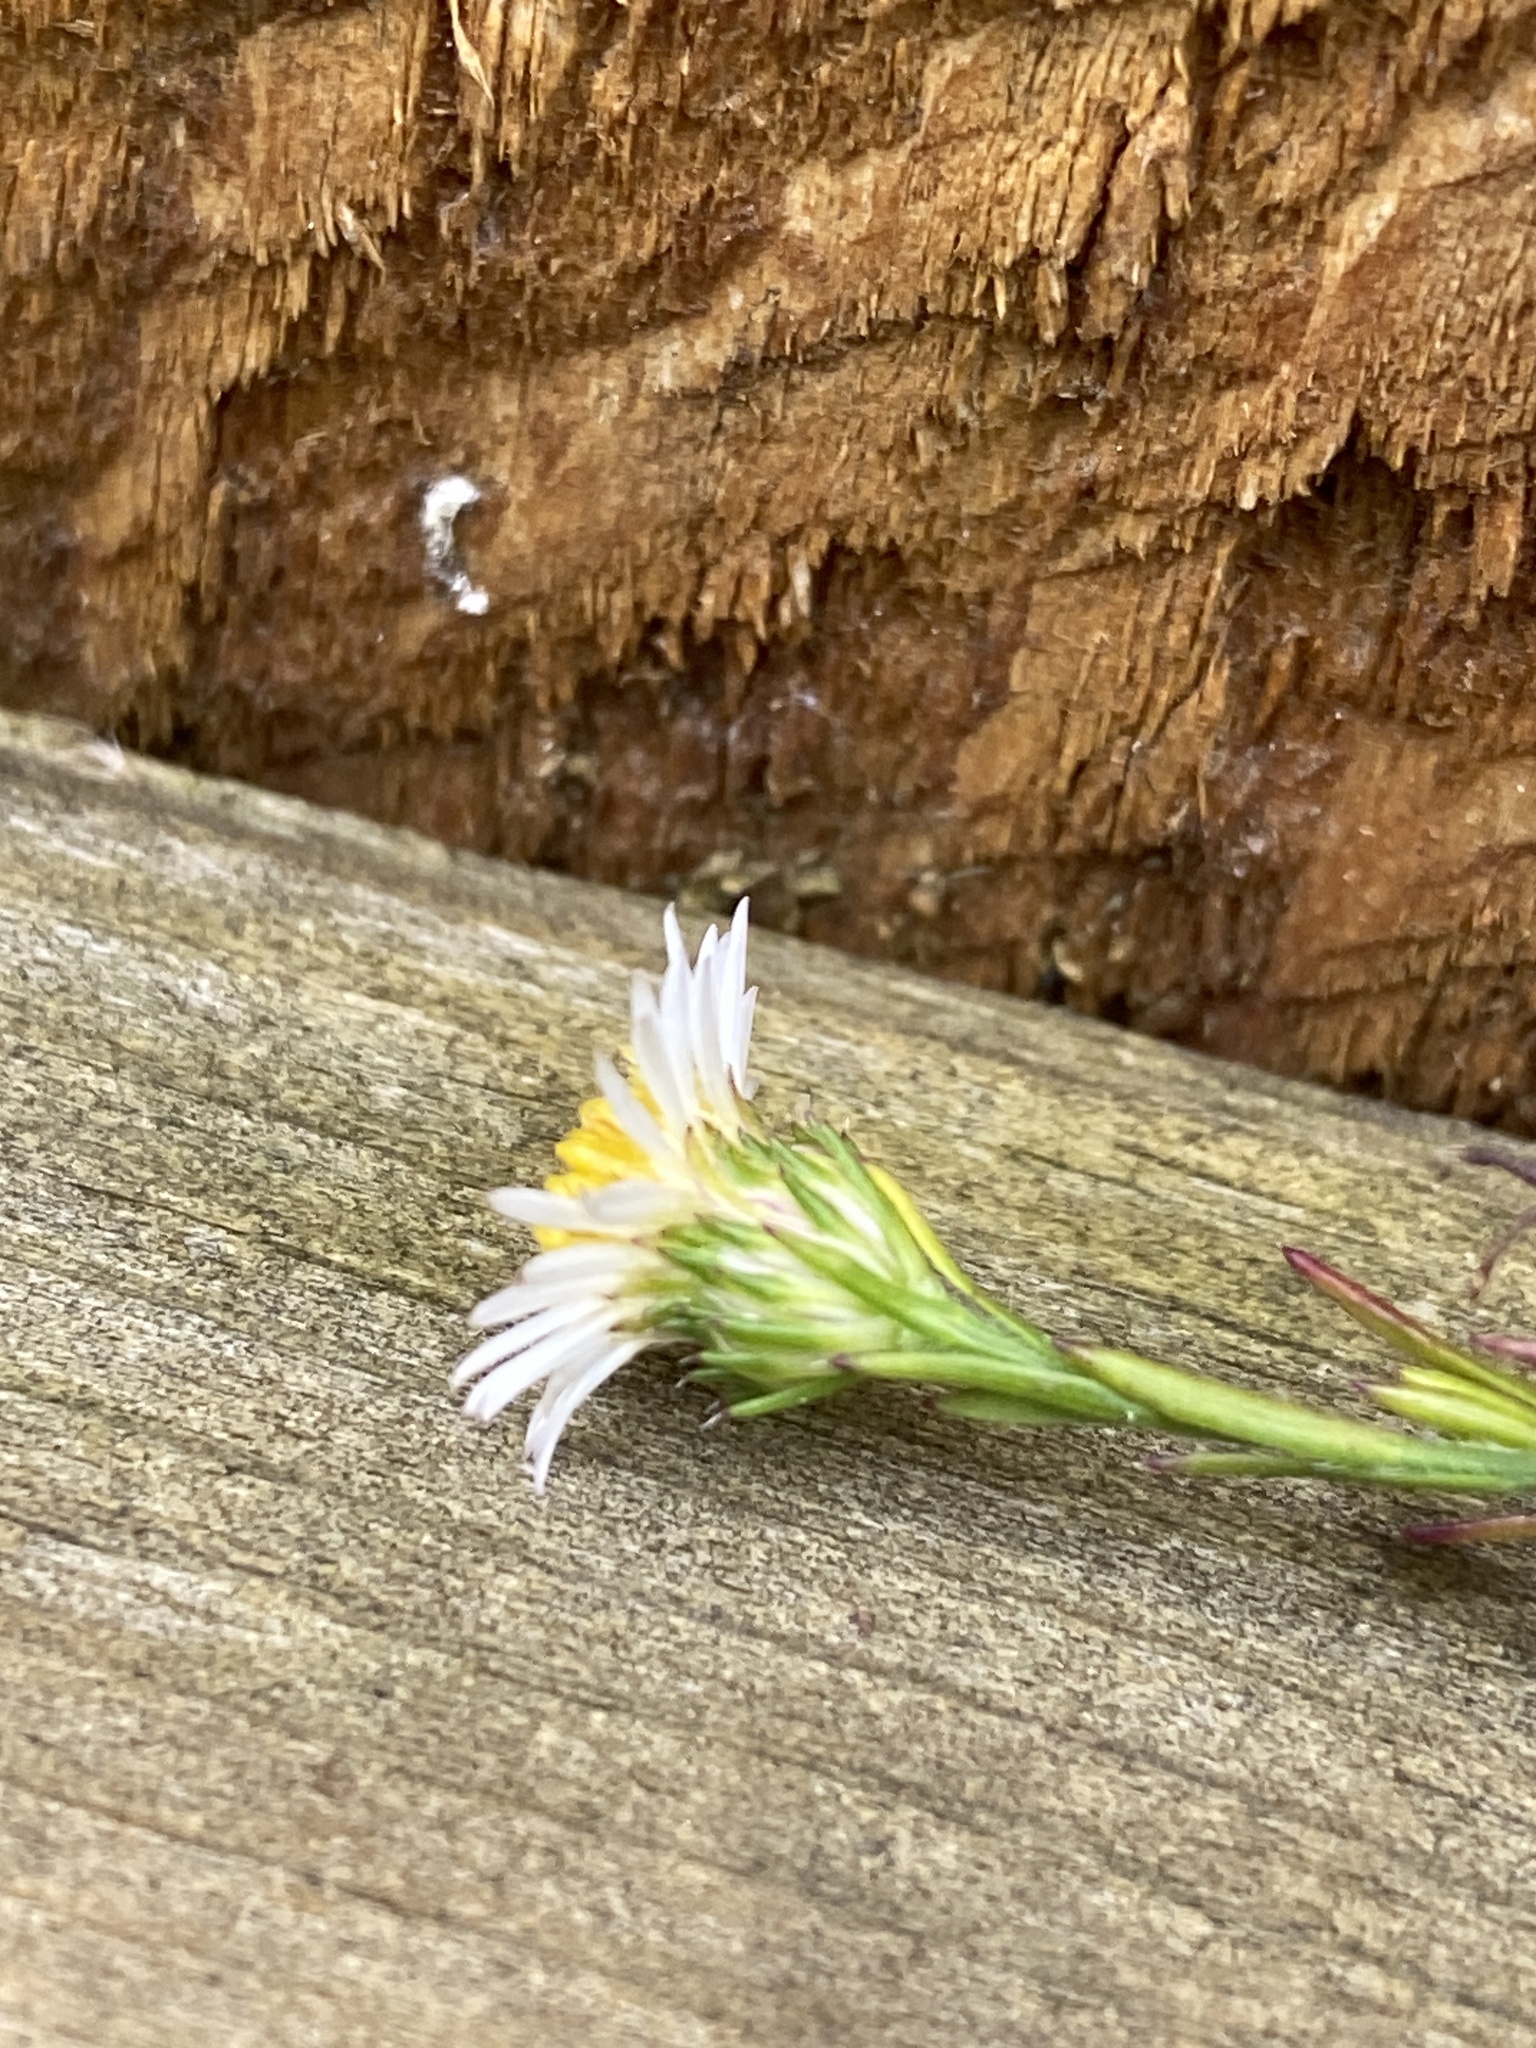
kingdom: Plantae
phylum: Tracheophyta
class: Magnoliopsida
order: Asterales
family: Asteraceae
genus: Symphyotrichum
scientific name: Symphyotrichum pilosum
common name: Awl aster
